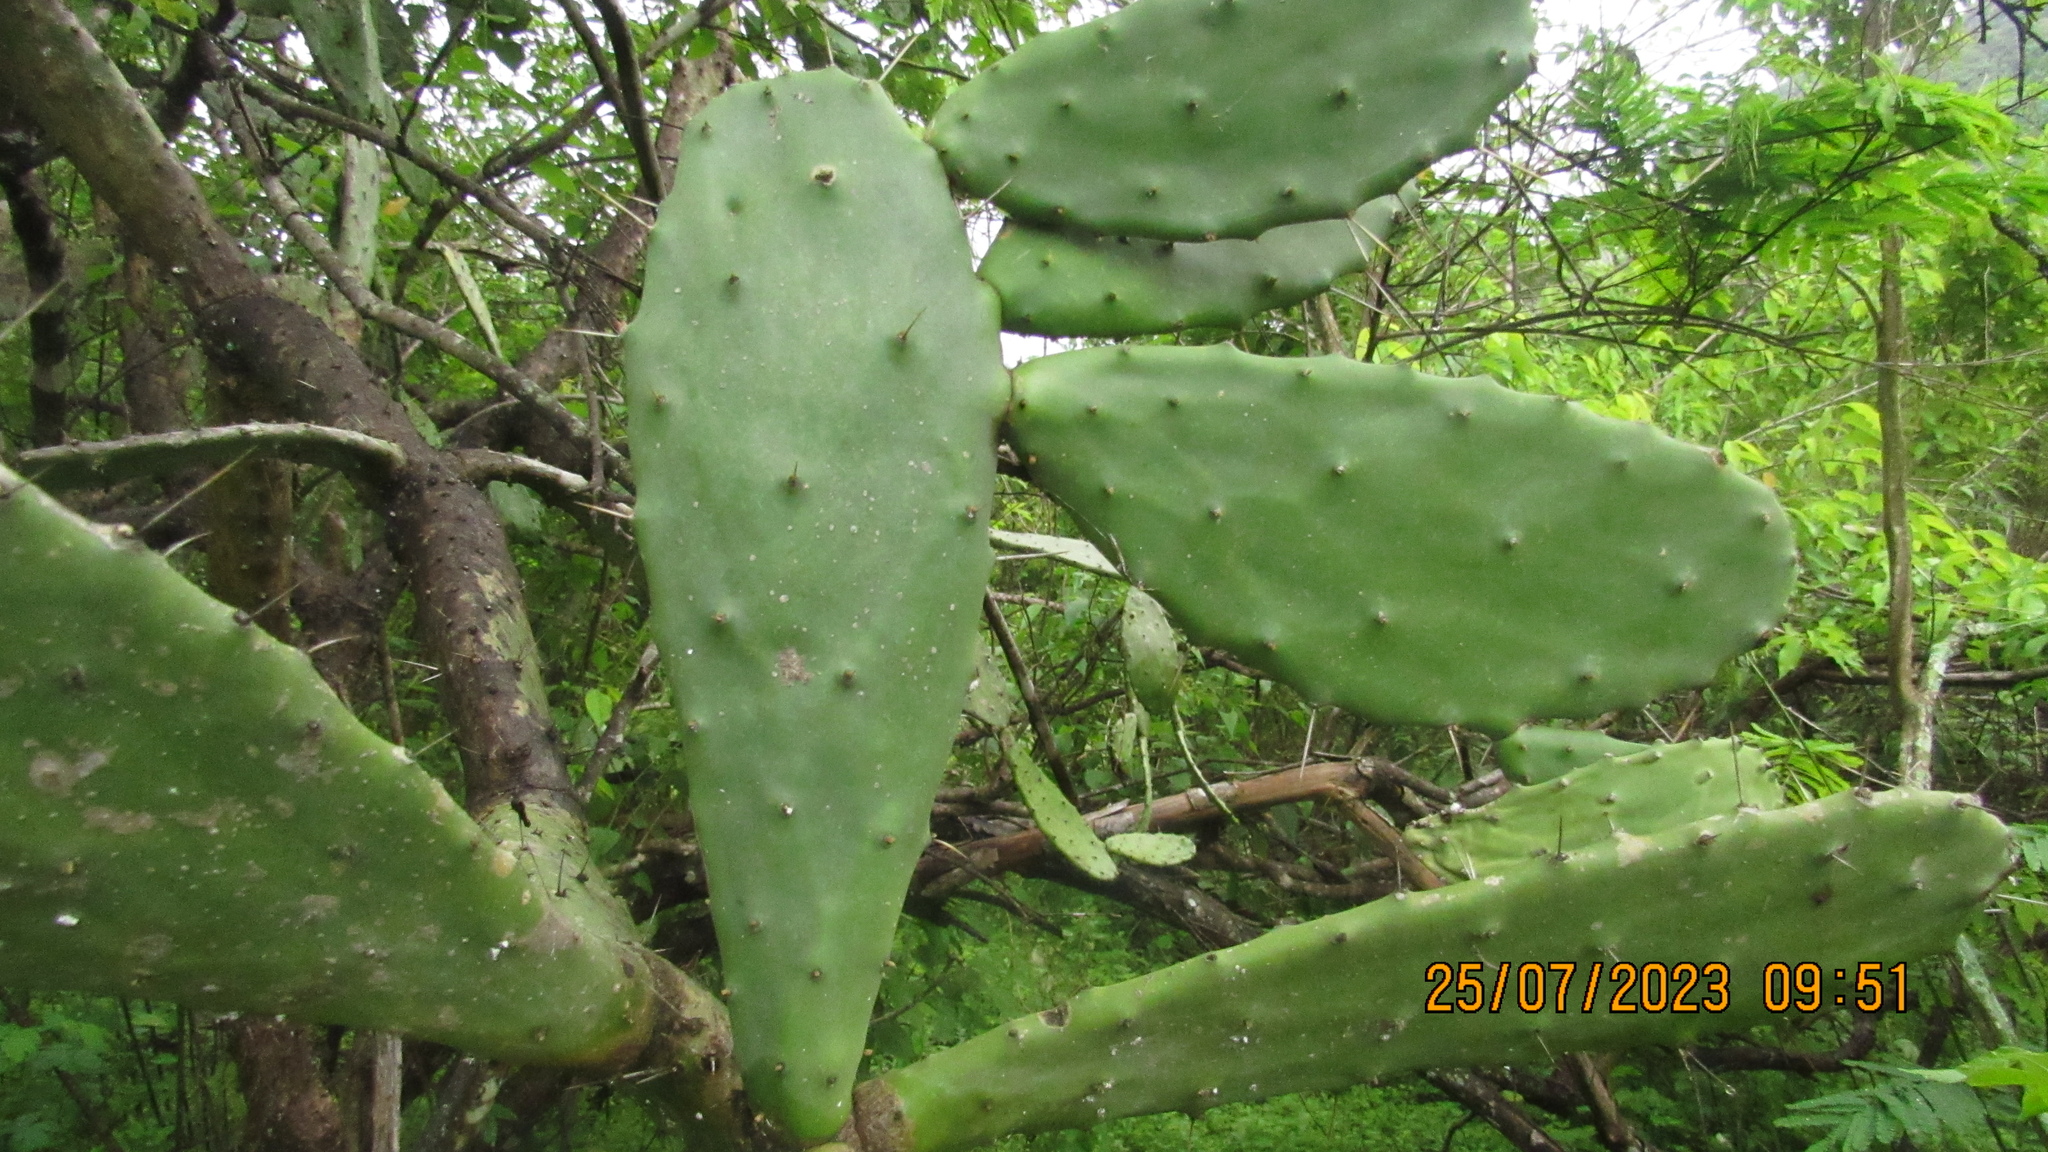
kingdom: Plantae
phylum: Tracheophyta
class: Magnoliopsida
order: Caryophyllales
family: Cactaceae
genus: Opuntia
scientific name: Opuntia hyptiacantha
